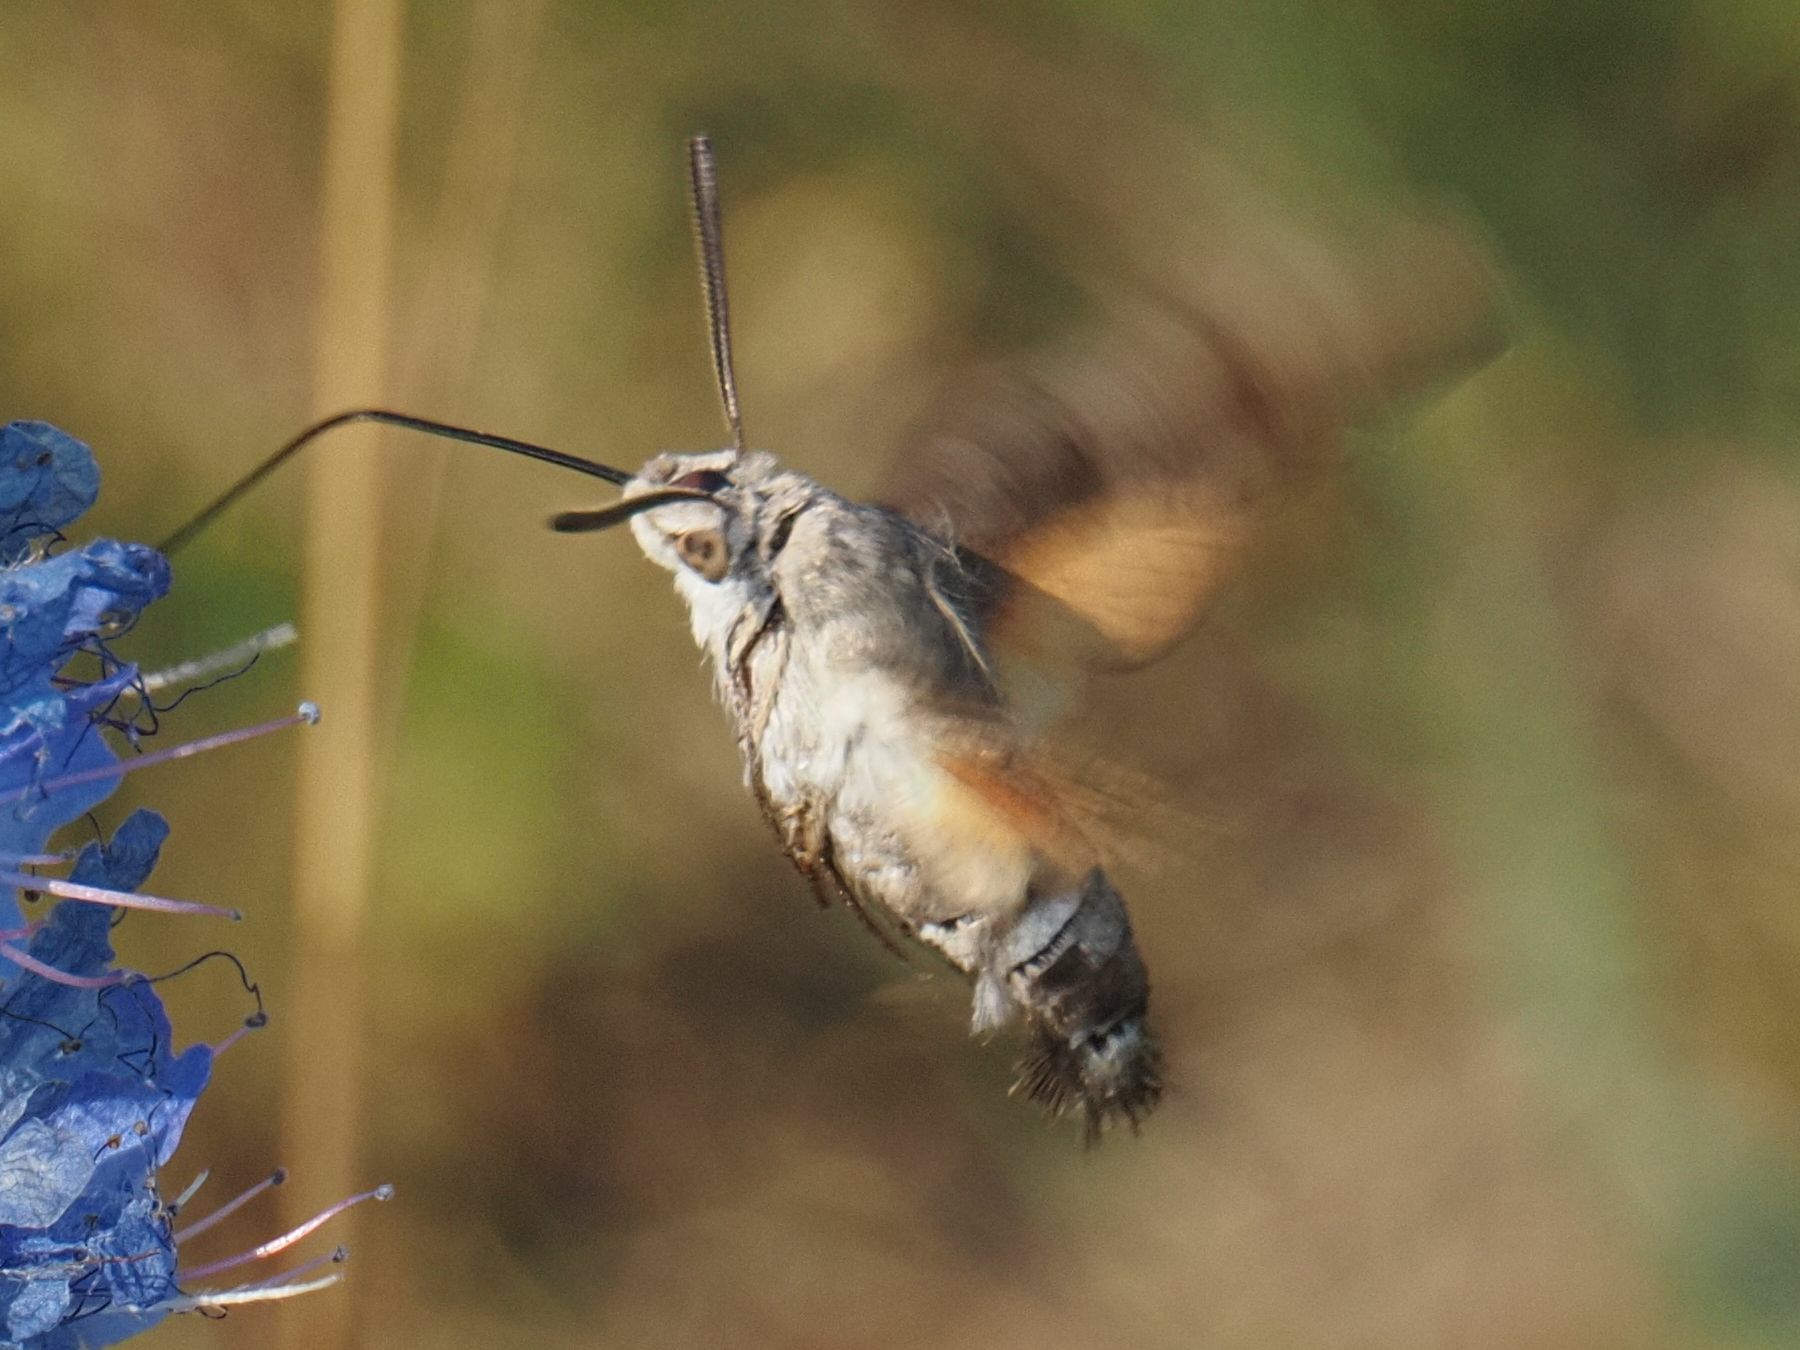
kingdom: Animalia
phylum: Arthropoda
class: Insecta
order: Lepidoptera
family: Sphingidae
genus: Macroglossum
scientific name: Macroglossum stellatarum
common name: Humming-bird hawk-moth
